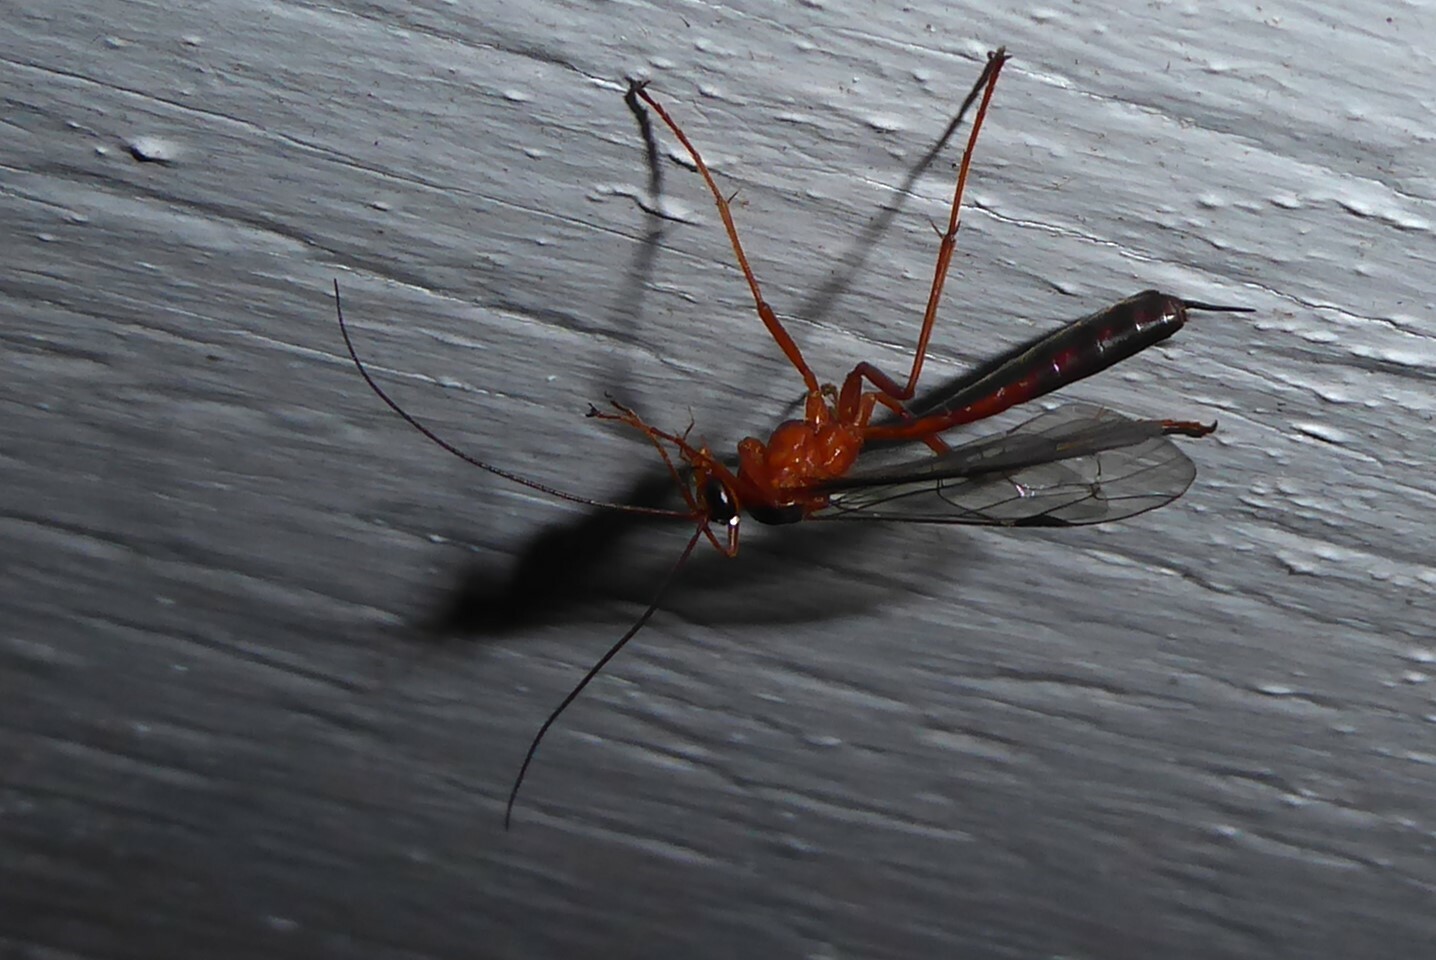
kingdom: Animalia
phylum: Arthropoda
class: Insecta
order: Hymenoptera
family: Ichneumonidae
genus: Netelia
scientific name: Netelia ephippiata
